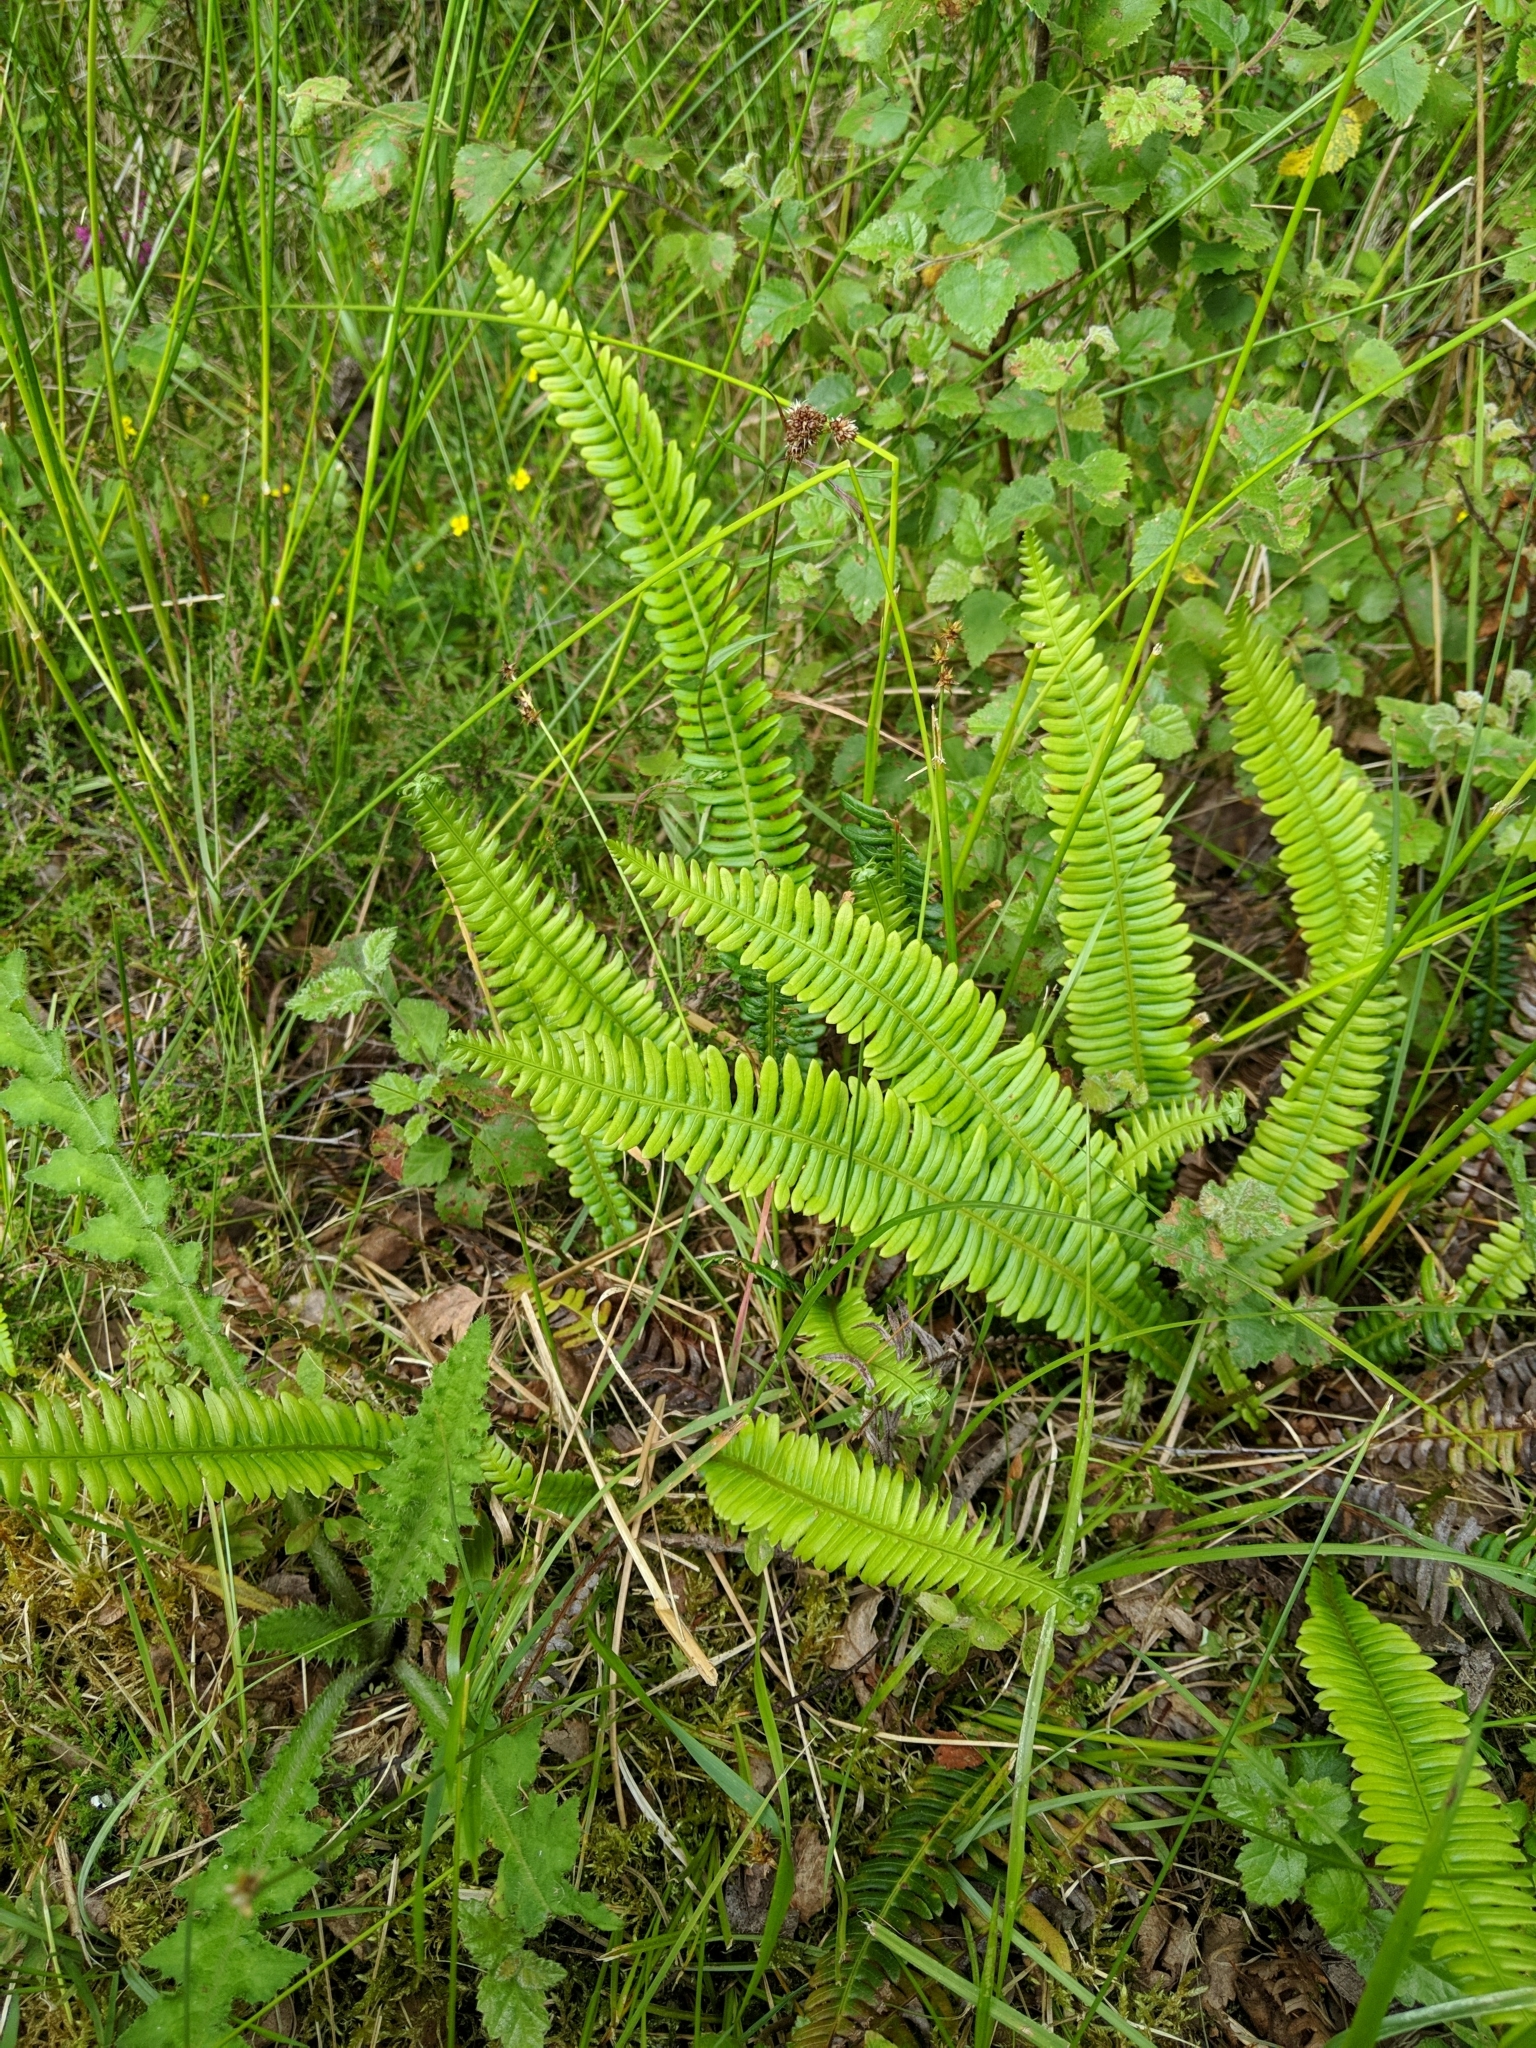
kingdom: Plantae
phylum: Tracheophyta
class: Polypodiopsida
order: Polypodiales
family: Blechnaceae
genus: Struthiopteris
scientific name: Struthiopteris spicant
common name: Deer fern
